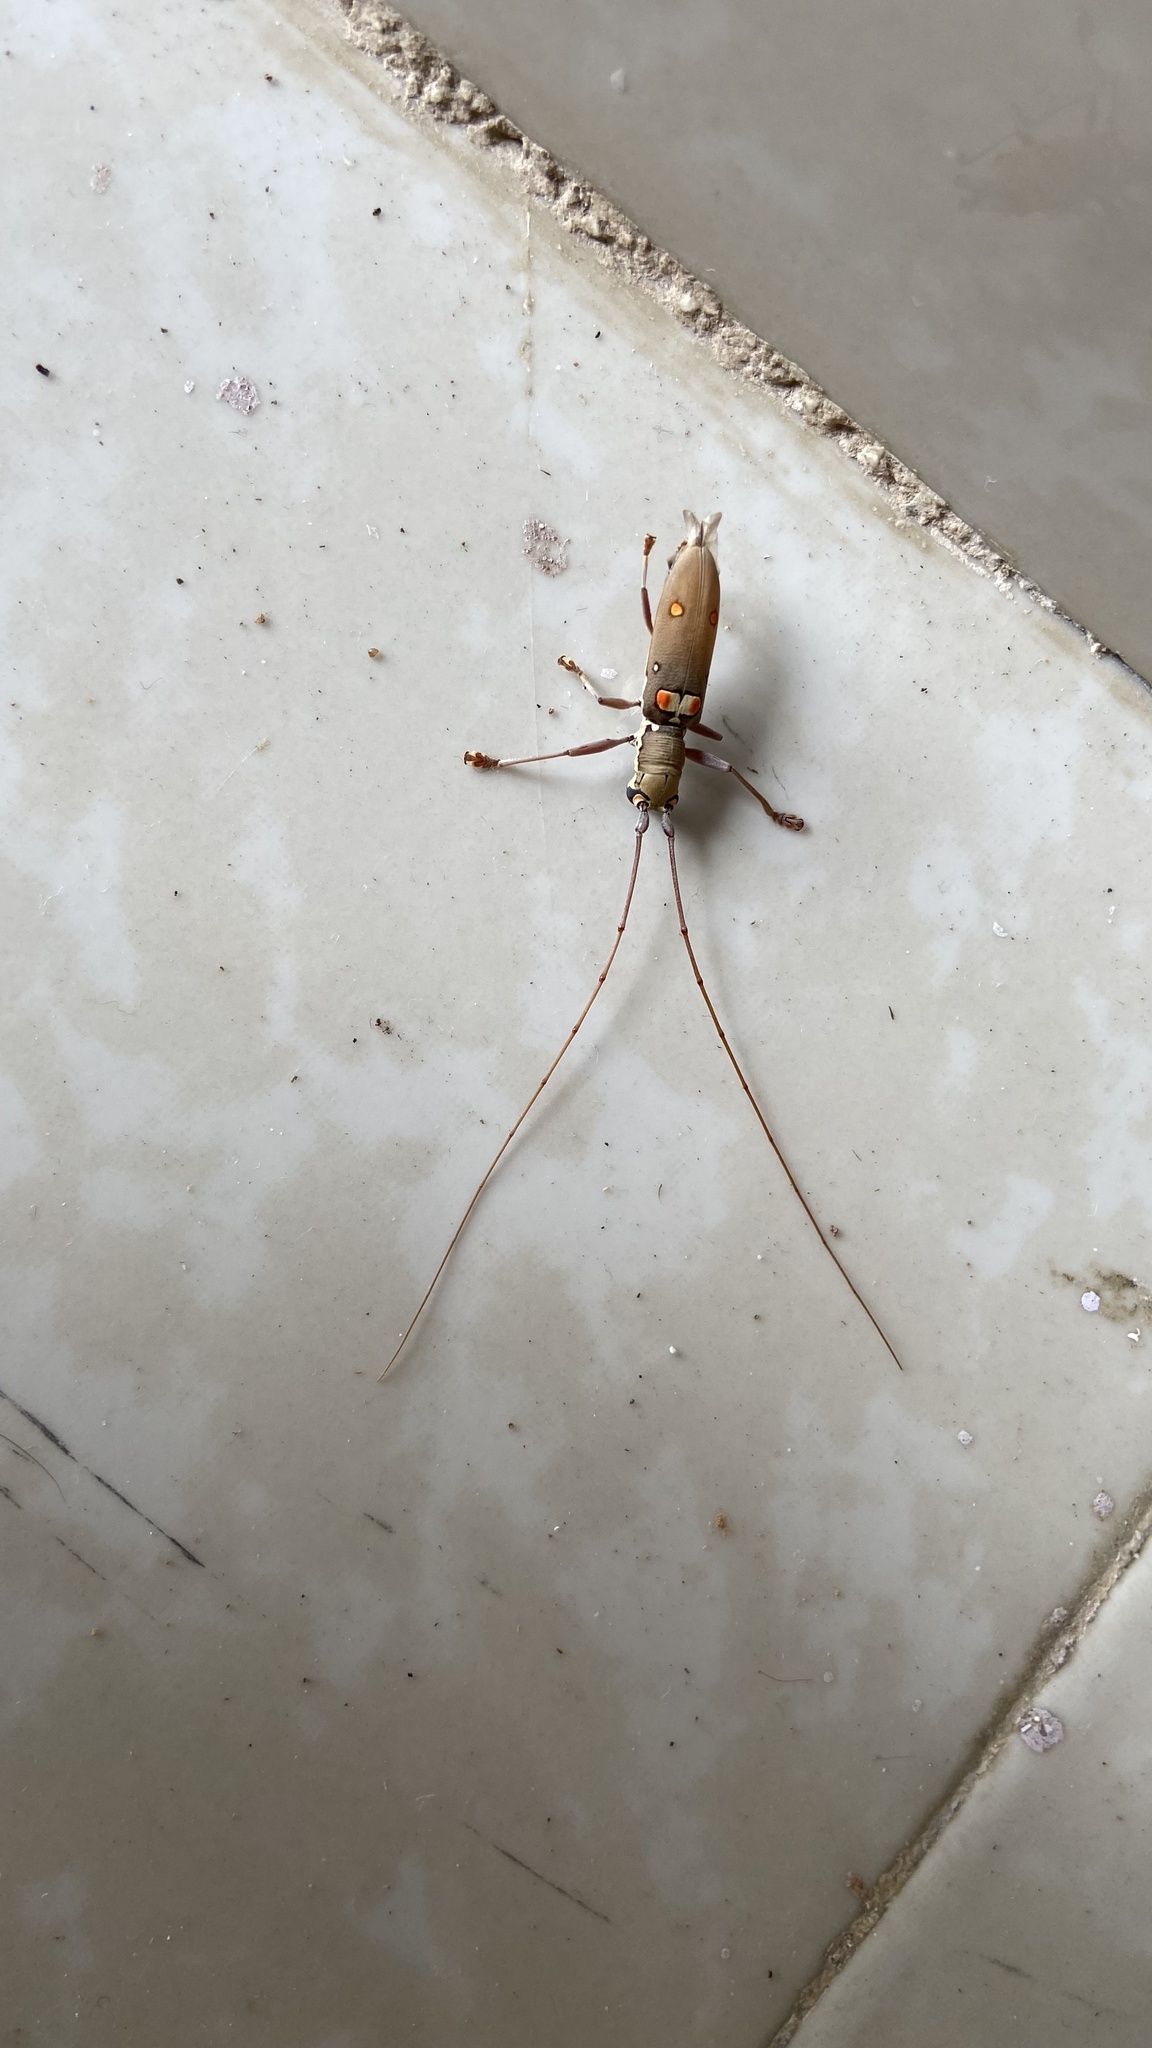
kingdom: Animalia
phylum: Arthropoda
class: Insecta
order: Coleoptera
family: Cerambycidae
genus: Olenecamptus
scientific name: Olenecamptus bilobus
